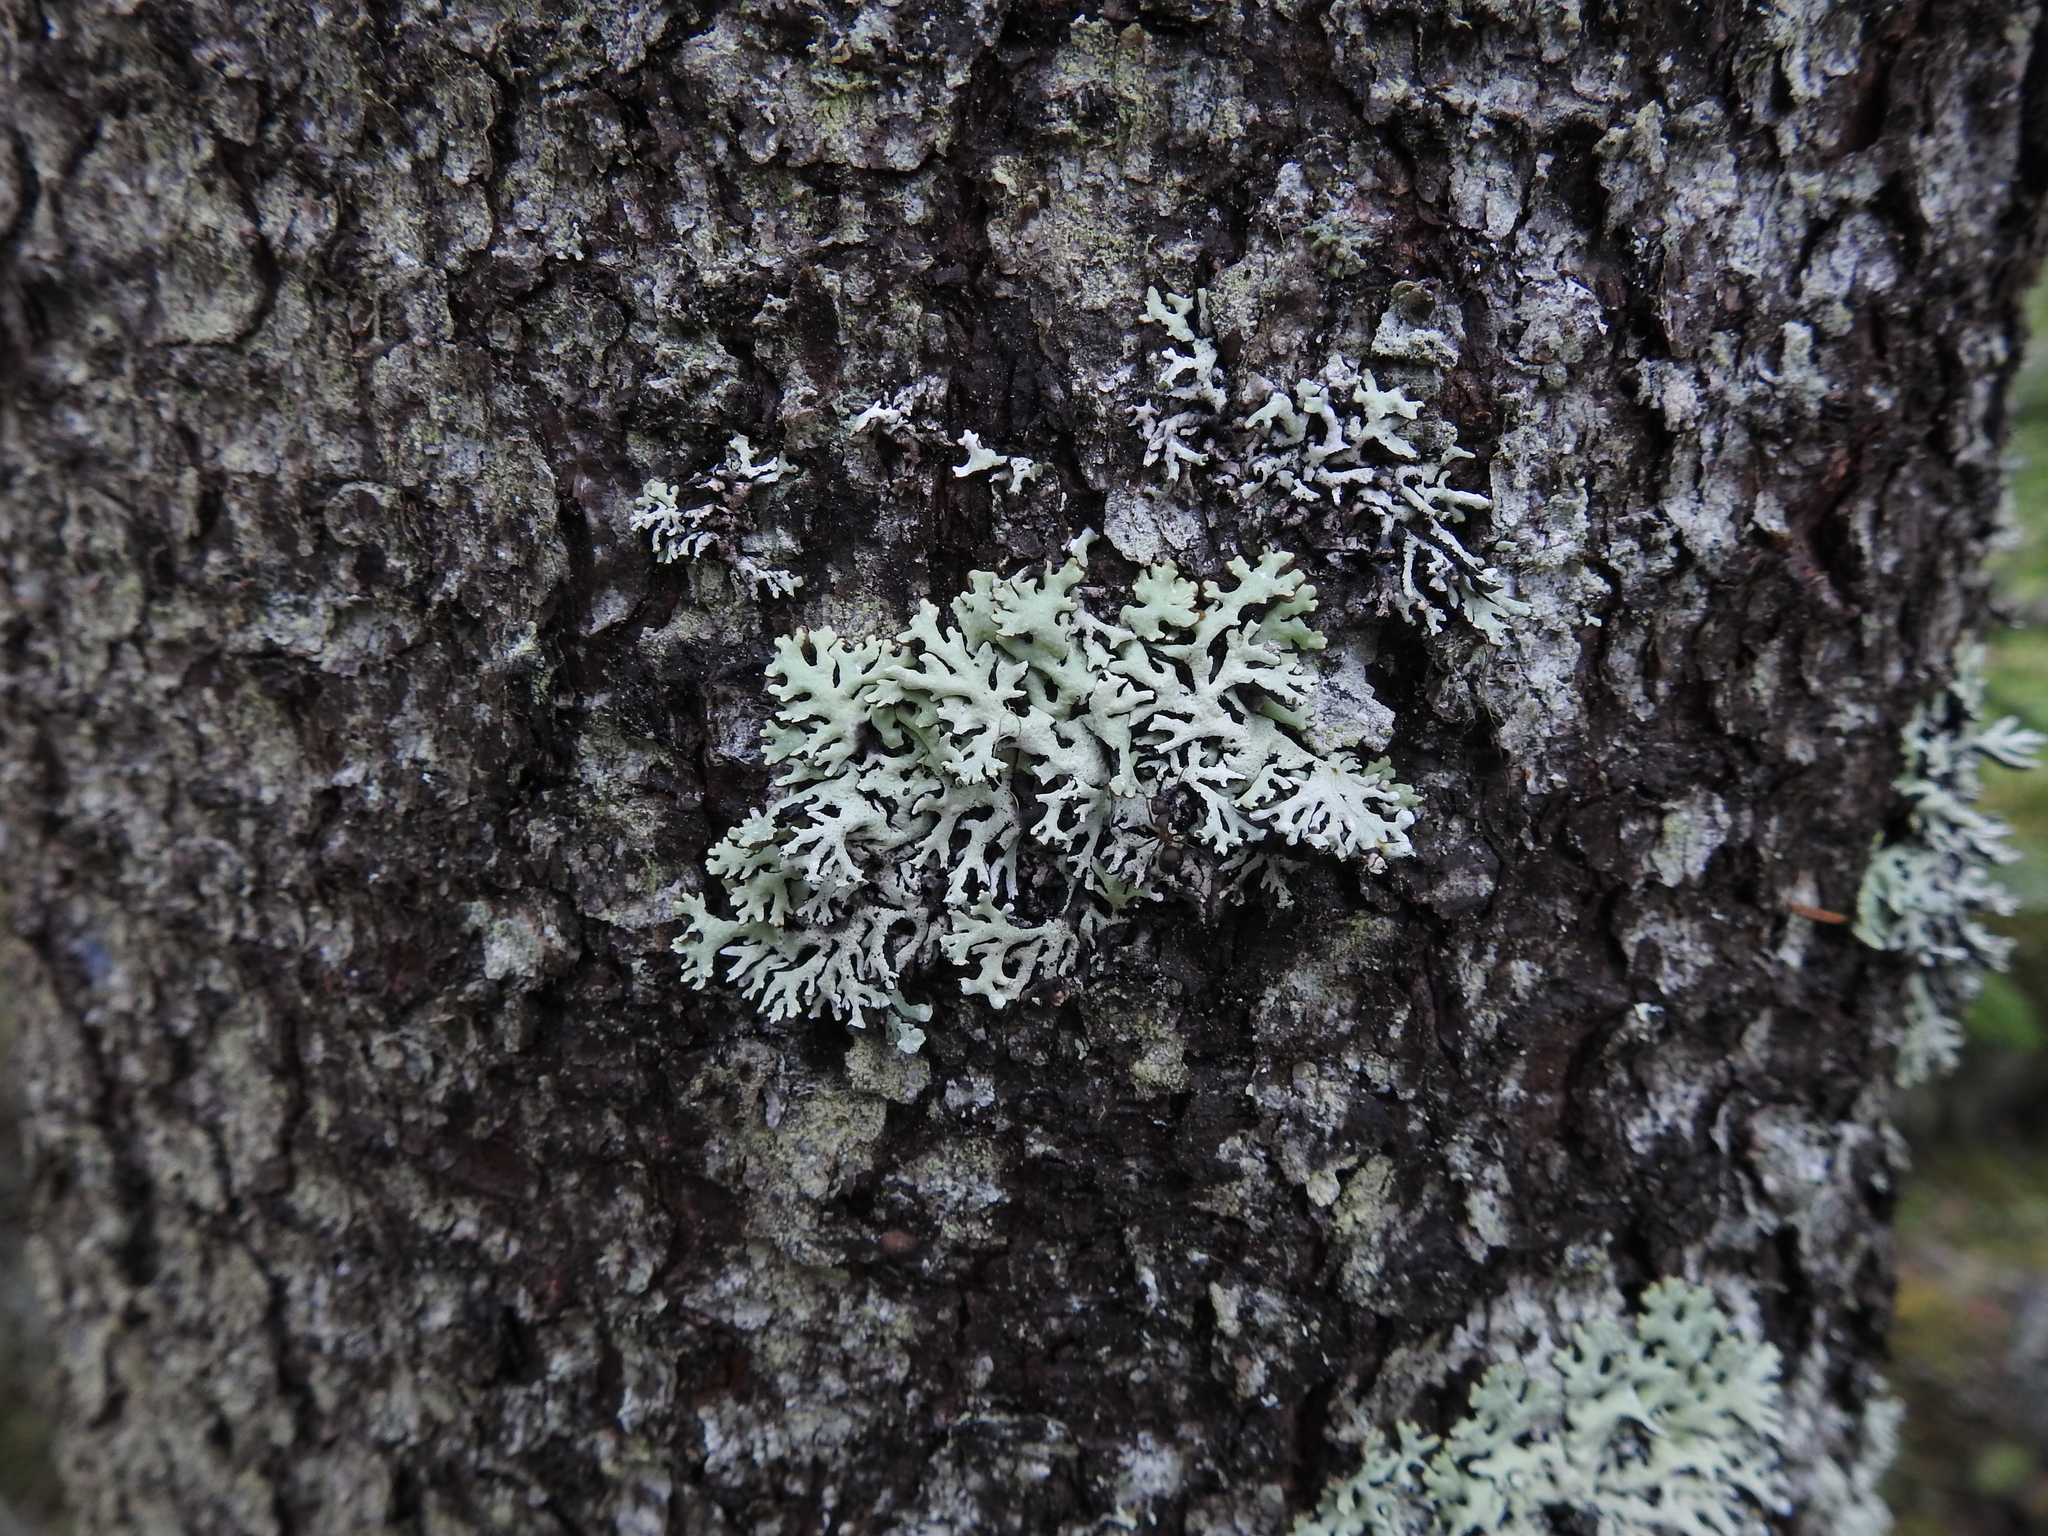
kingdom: Fungi
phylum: Ascomycota
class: Lecanoromycetes
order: Lecanorales
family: Parmeliaceae
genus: Hypogymnia
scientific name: Hypogymnia physodes
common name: Dark crottle
